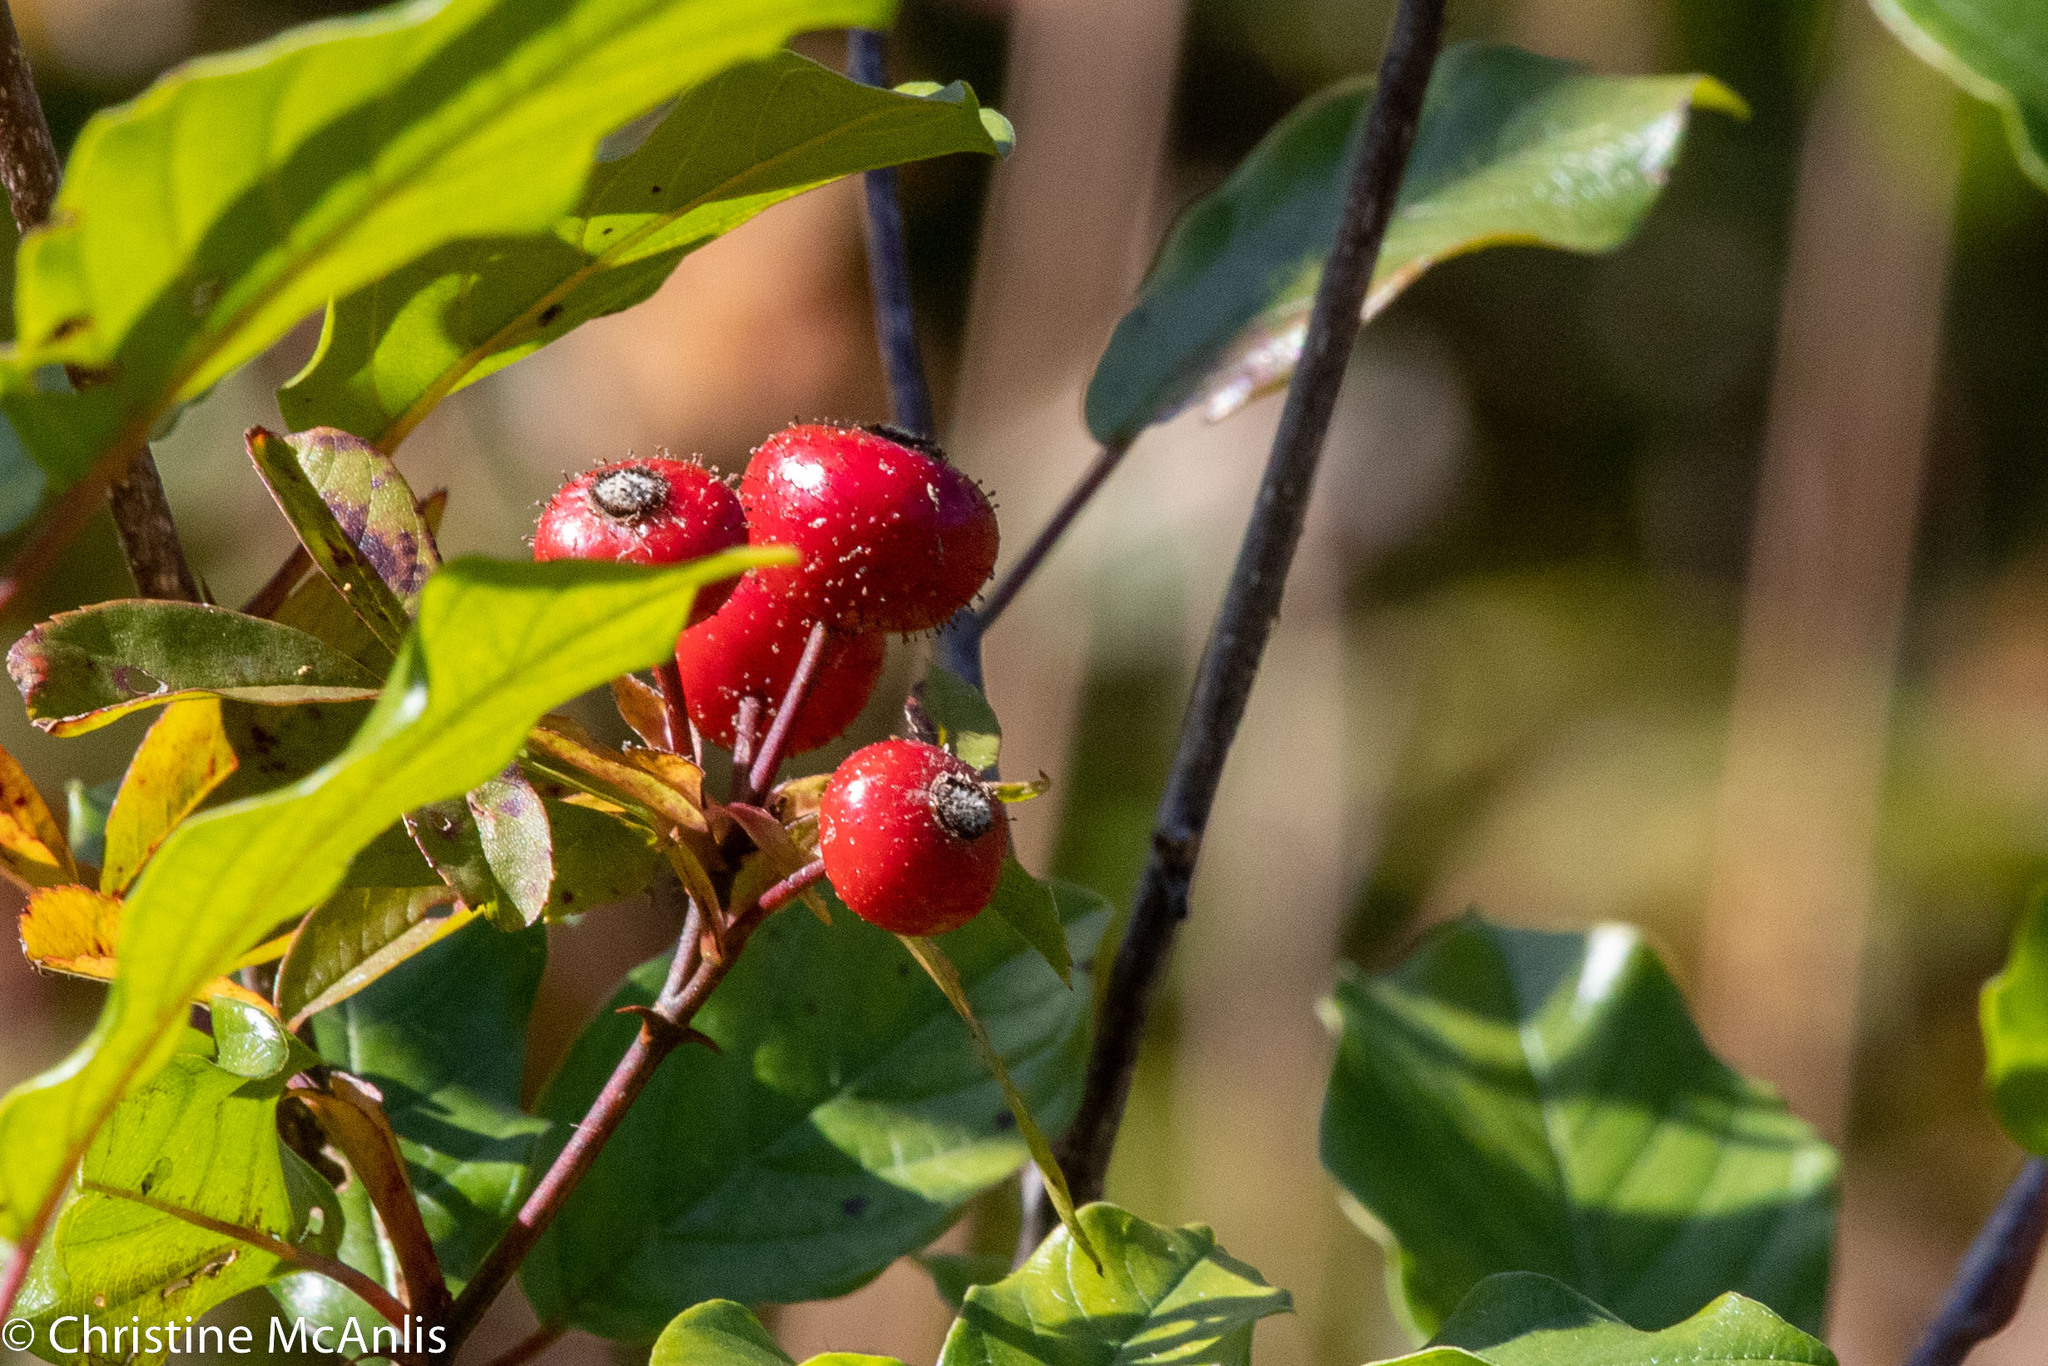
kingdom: Plantae
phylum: Tracheophyta
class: Magnoliopsida
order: Rosales
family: Rosaceae
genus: Rosa
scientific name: Rosa palustris
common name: Swamp rose
